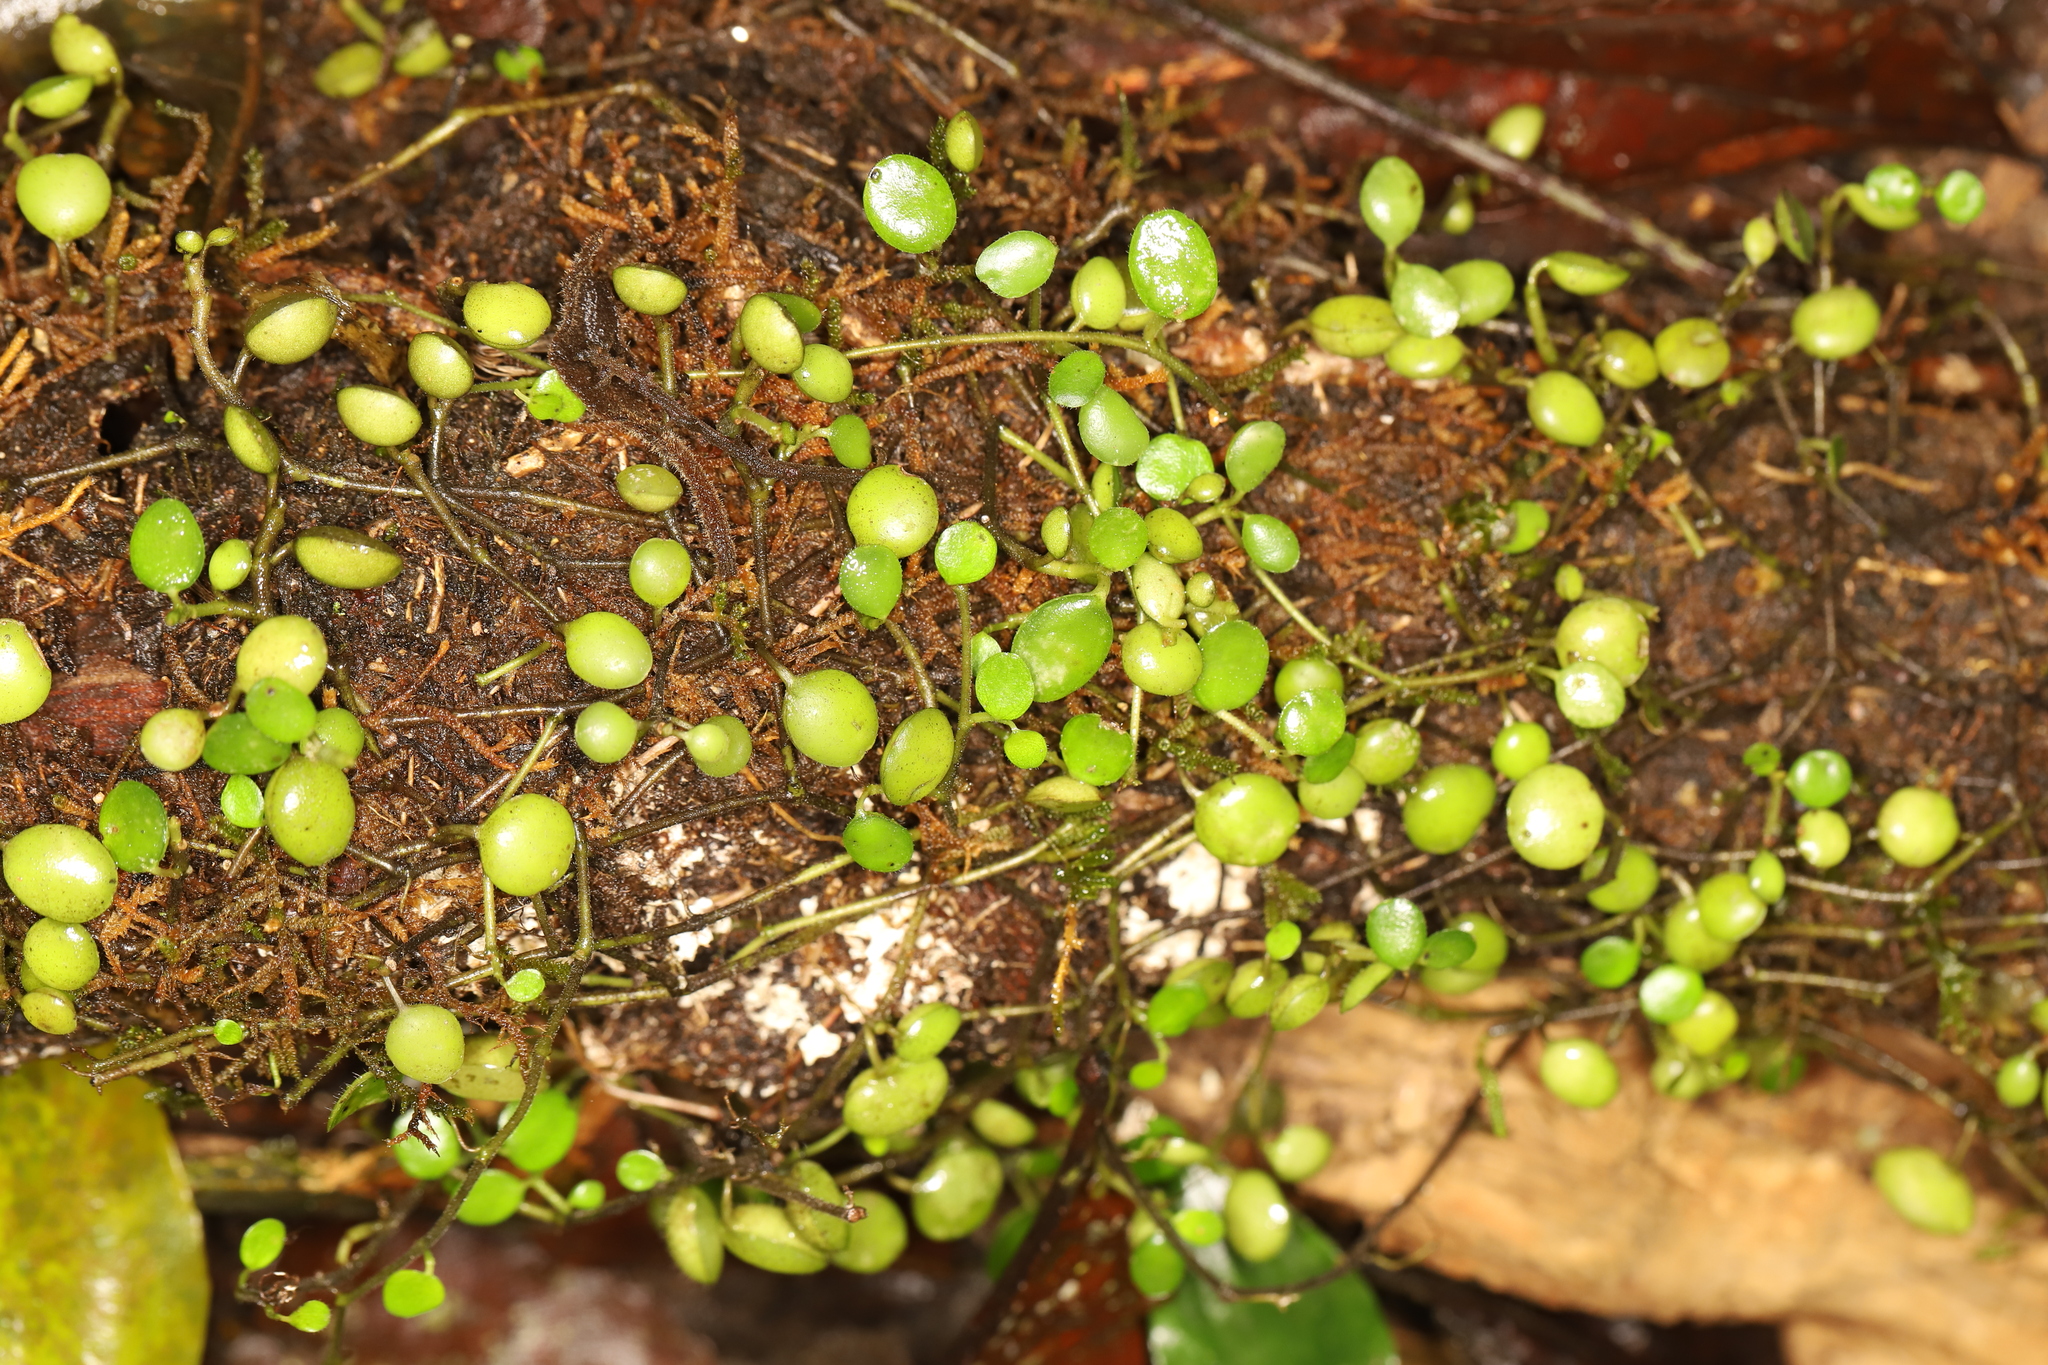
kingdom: Plantae
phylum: Tracheophyta
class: Magnoliopsida
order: Piperales
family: Piperaceae
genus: Peperomia
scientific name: Peperomia rotundifolia
